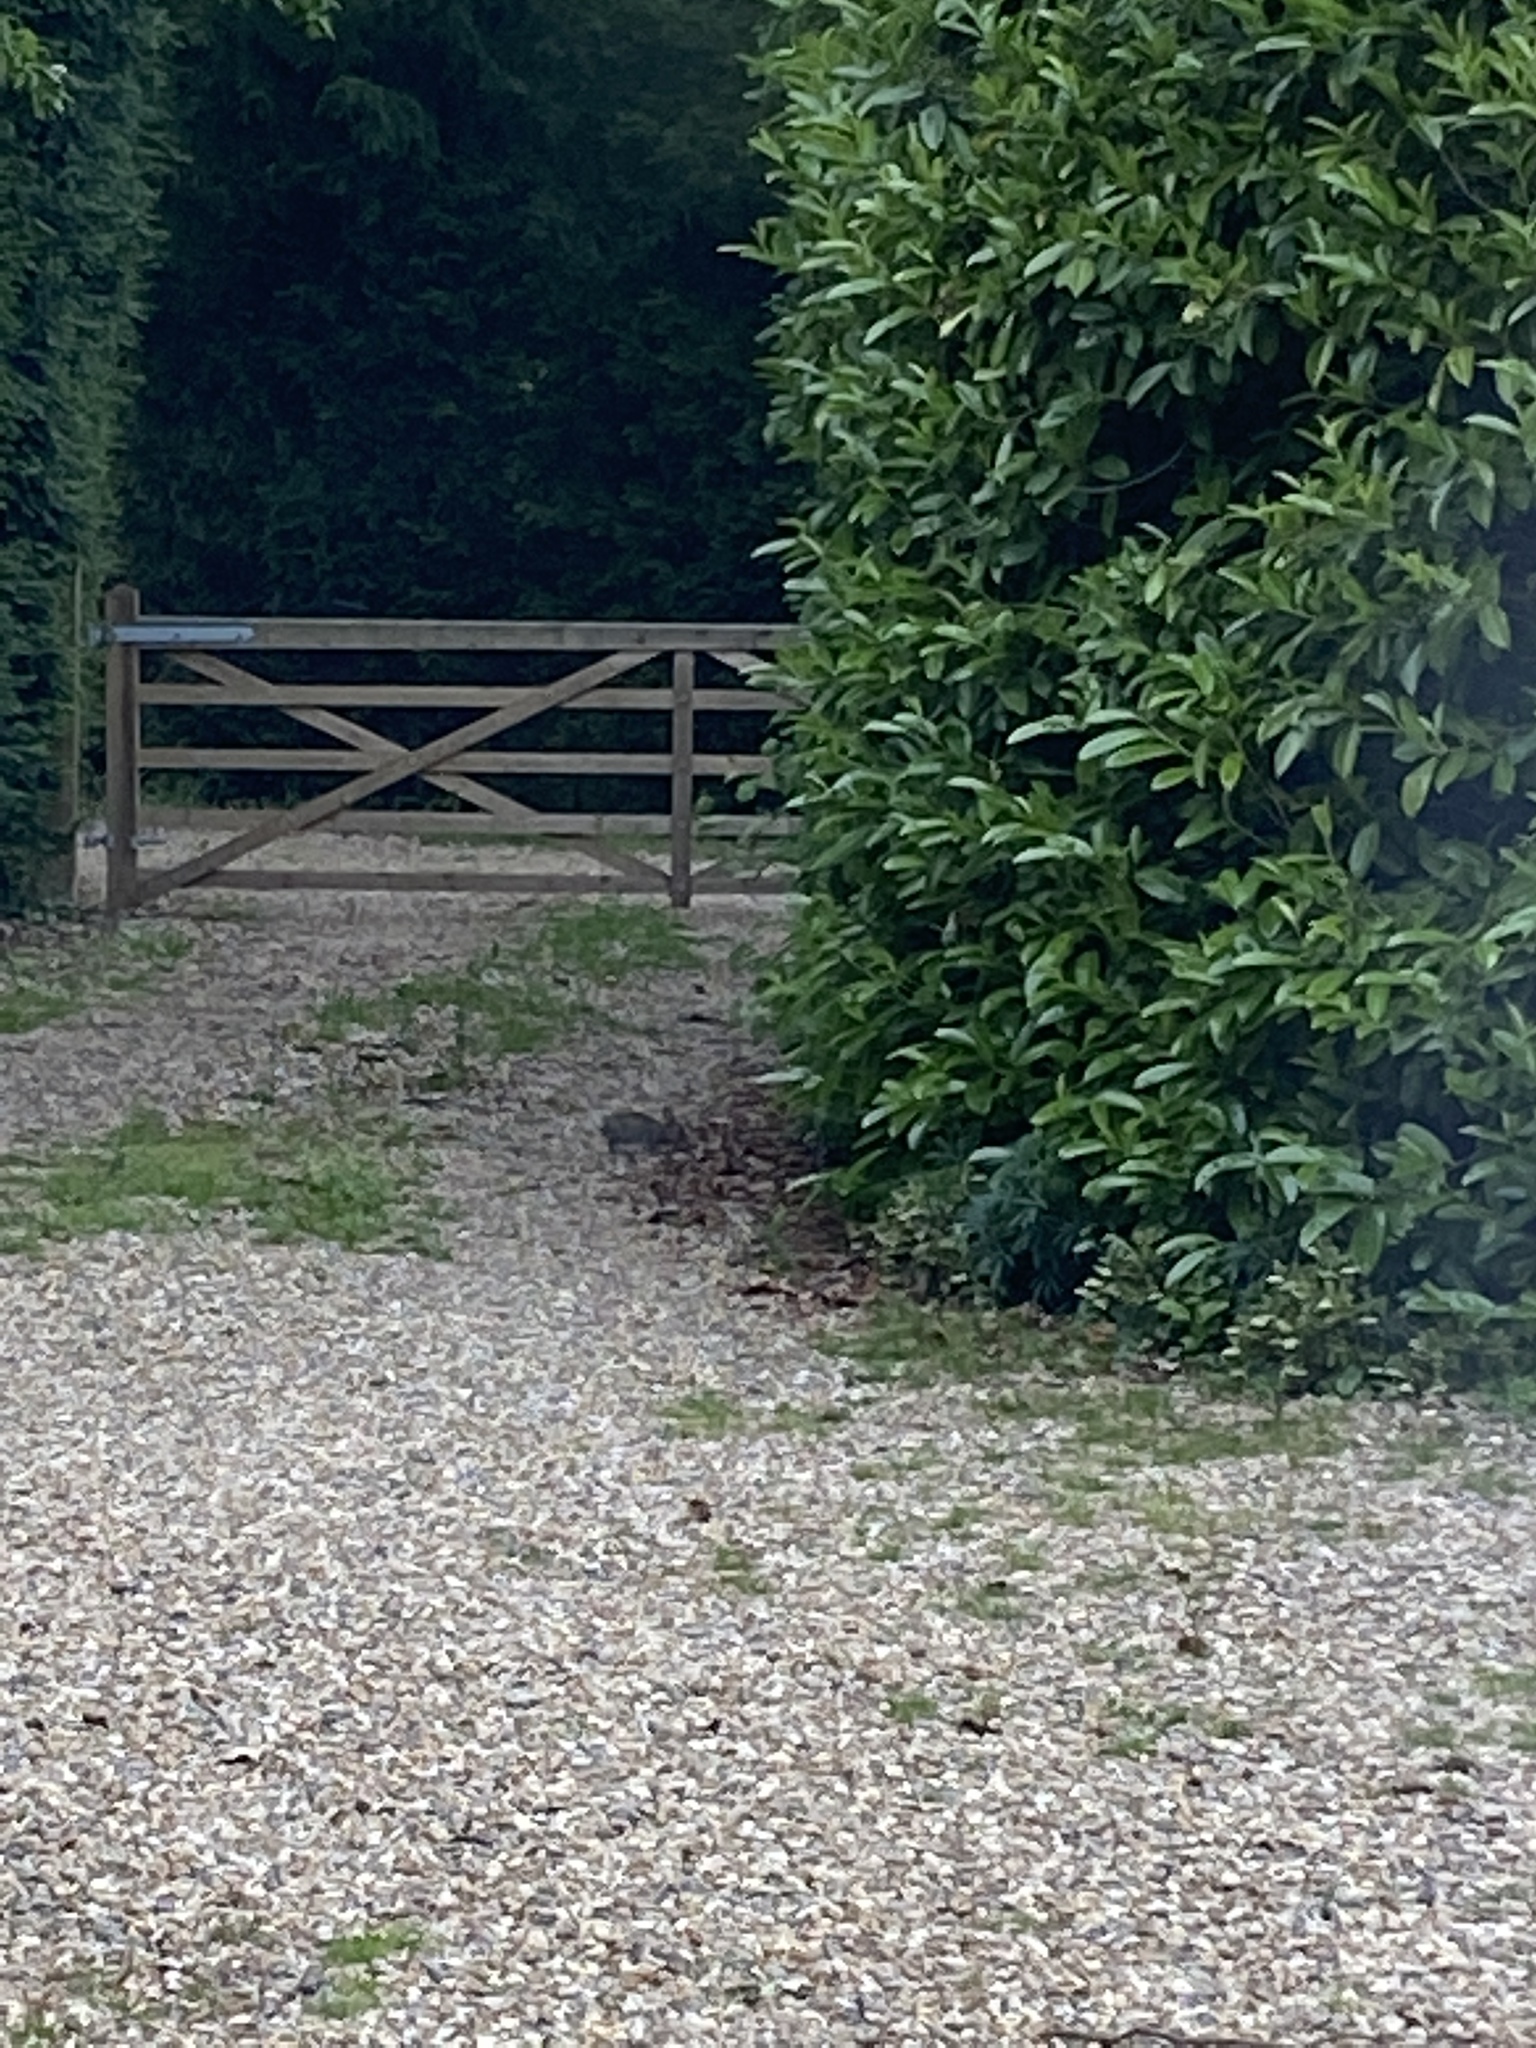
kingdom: Animalia
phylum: Chordata
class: Mammalia
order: Lagomorpha
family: Leporidae
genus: Oryctolagus
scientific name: Oryctolagus cuniculus
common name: European rabbit
